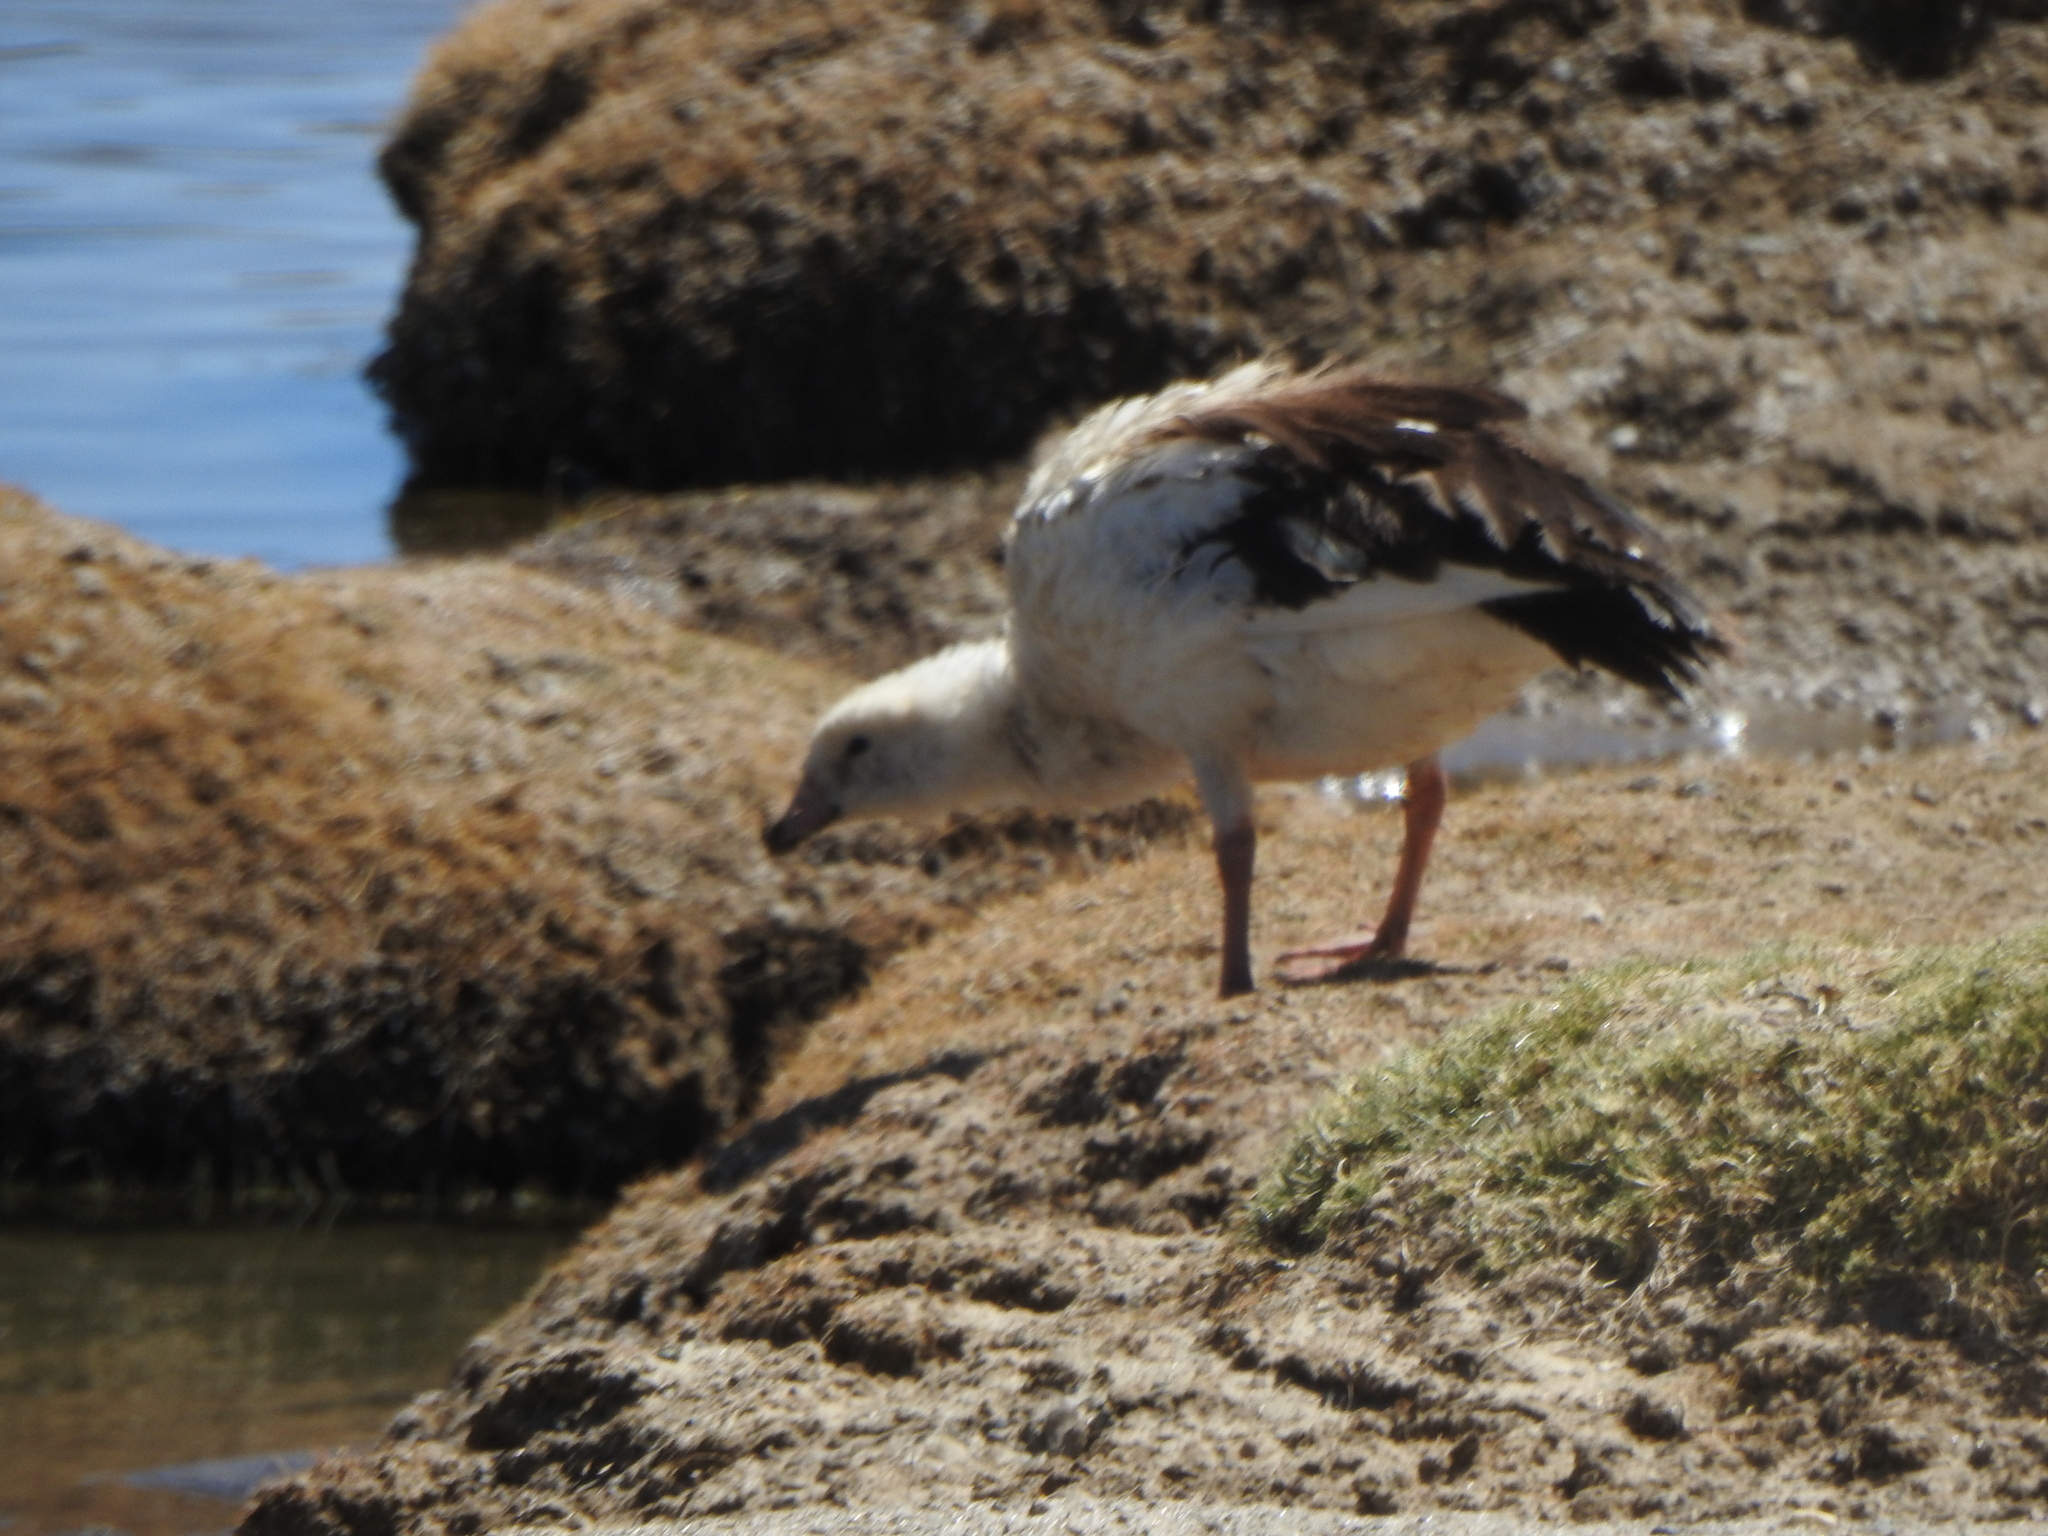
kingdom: Animalia
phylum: Chordata
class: Aves
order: Anseriformes
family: Anatidae
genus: Chloephaga
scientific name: Chloephaga melanoptera
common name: Andean goose
